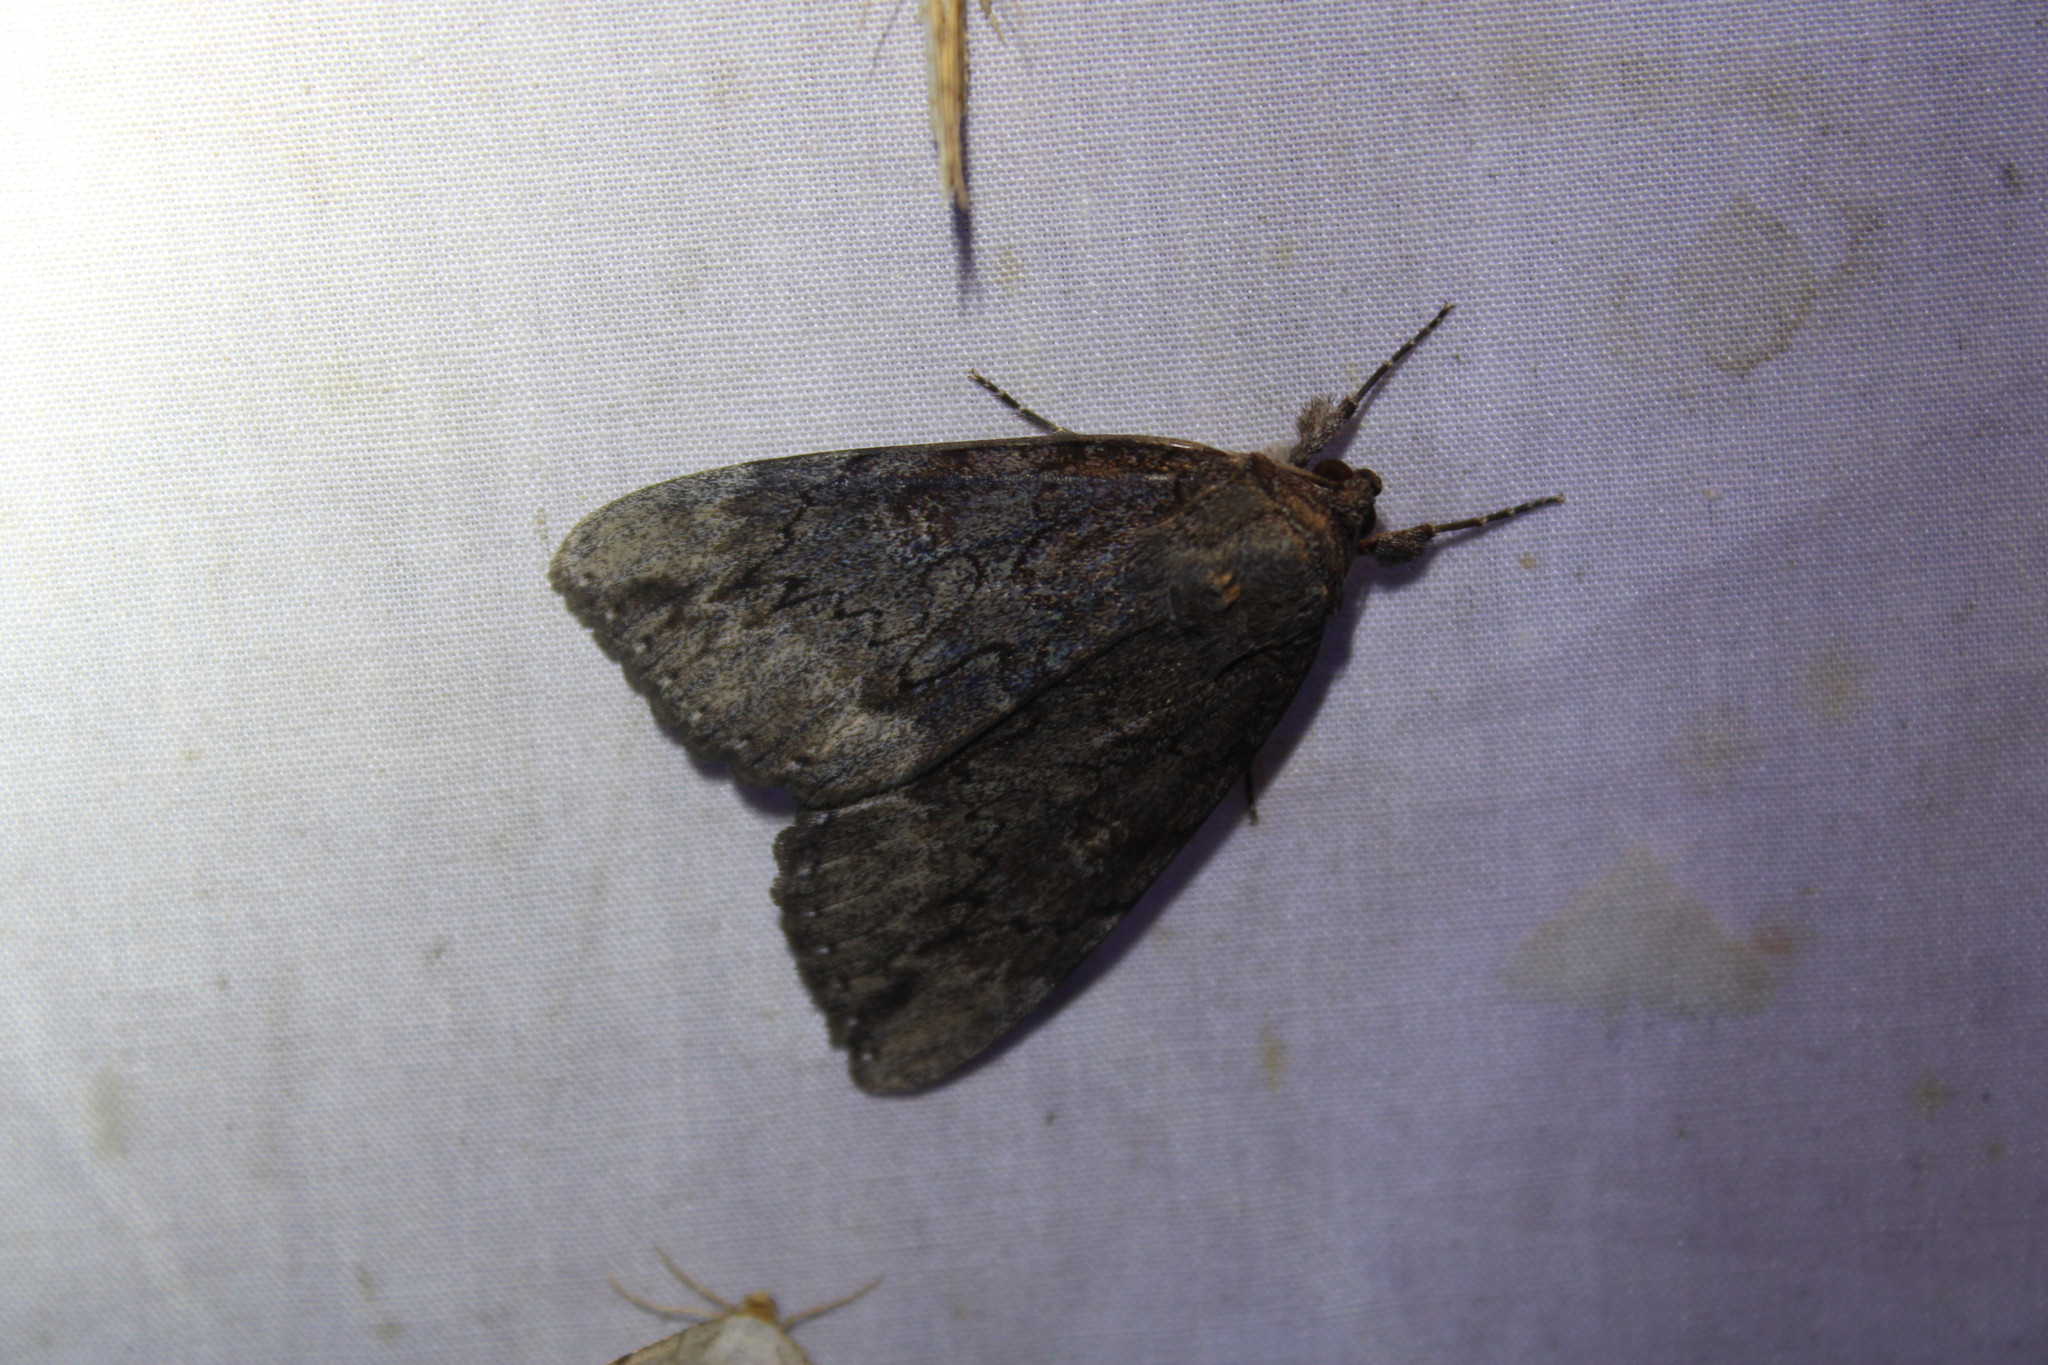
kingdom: Animalia
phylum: Arthropoda
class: Insecta
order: Lepidoptera
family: Erebidae
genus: Catocala
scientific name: Catocala residua
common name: Residua underwing
